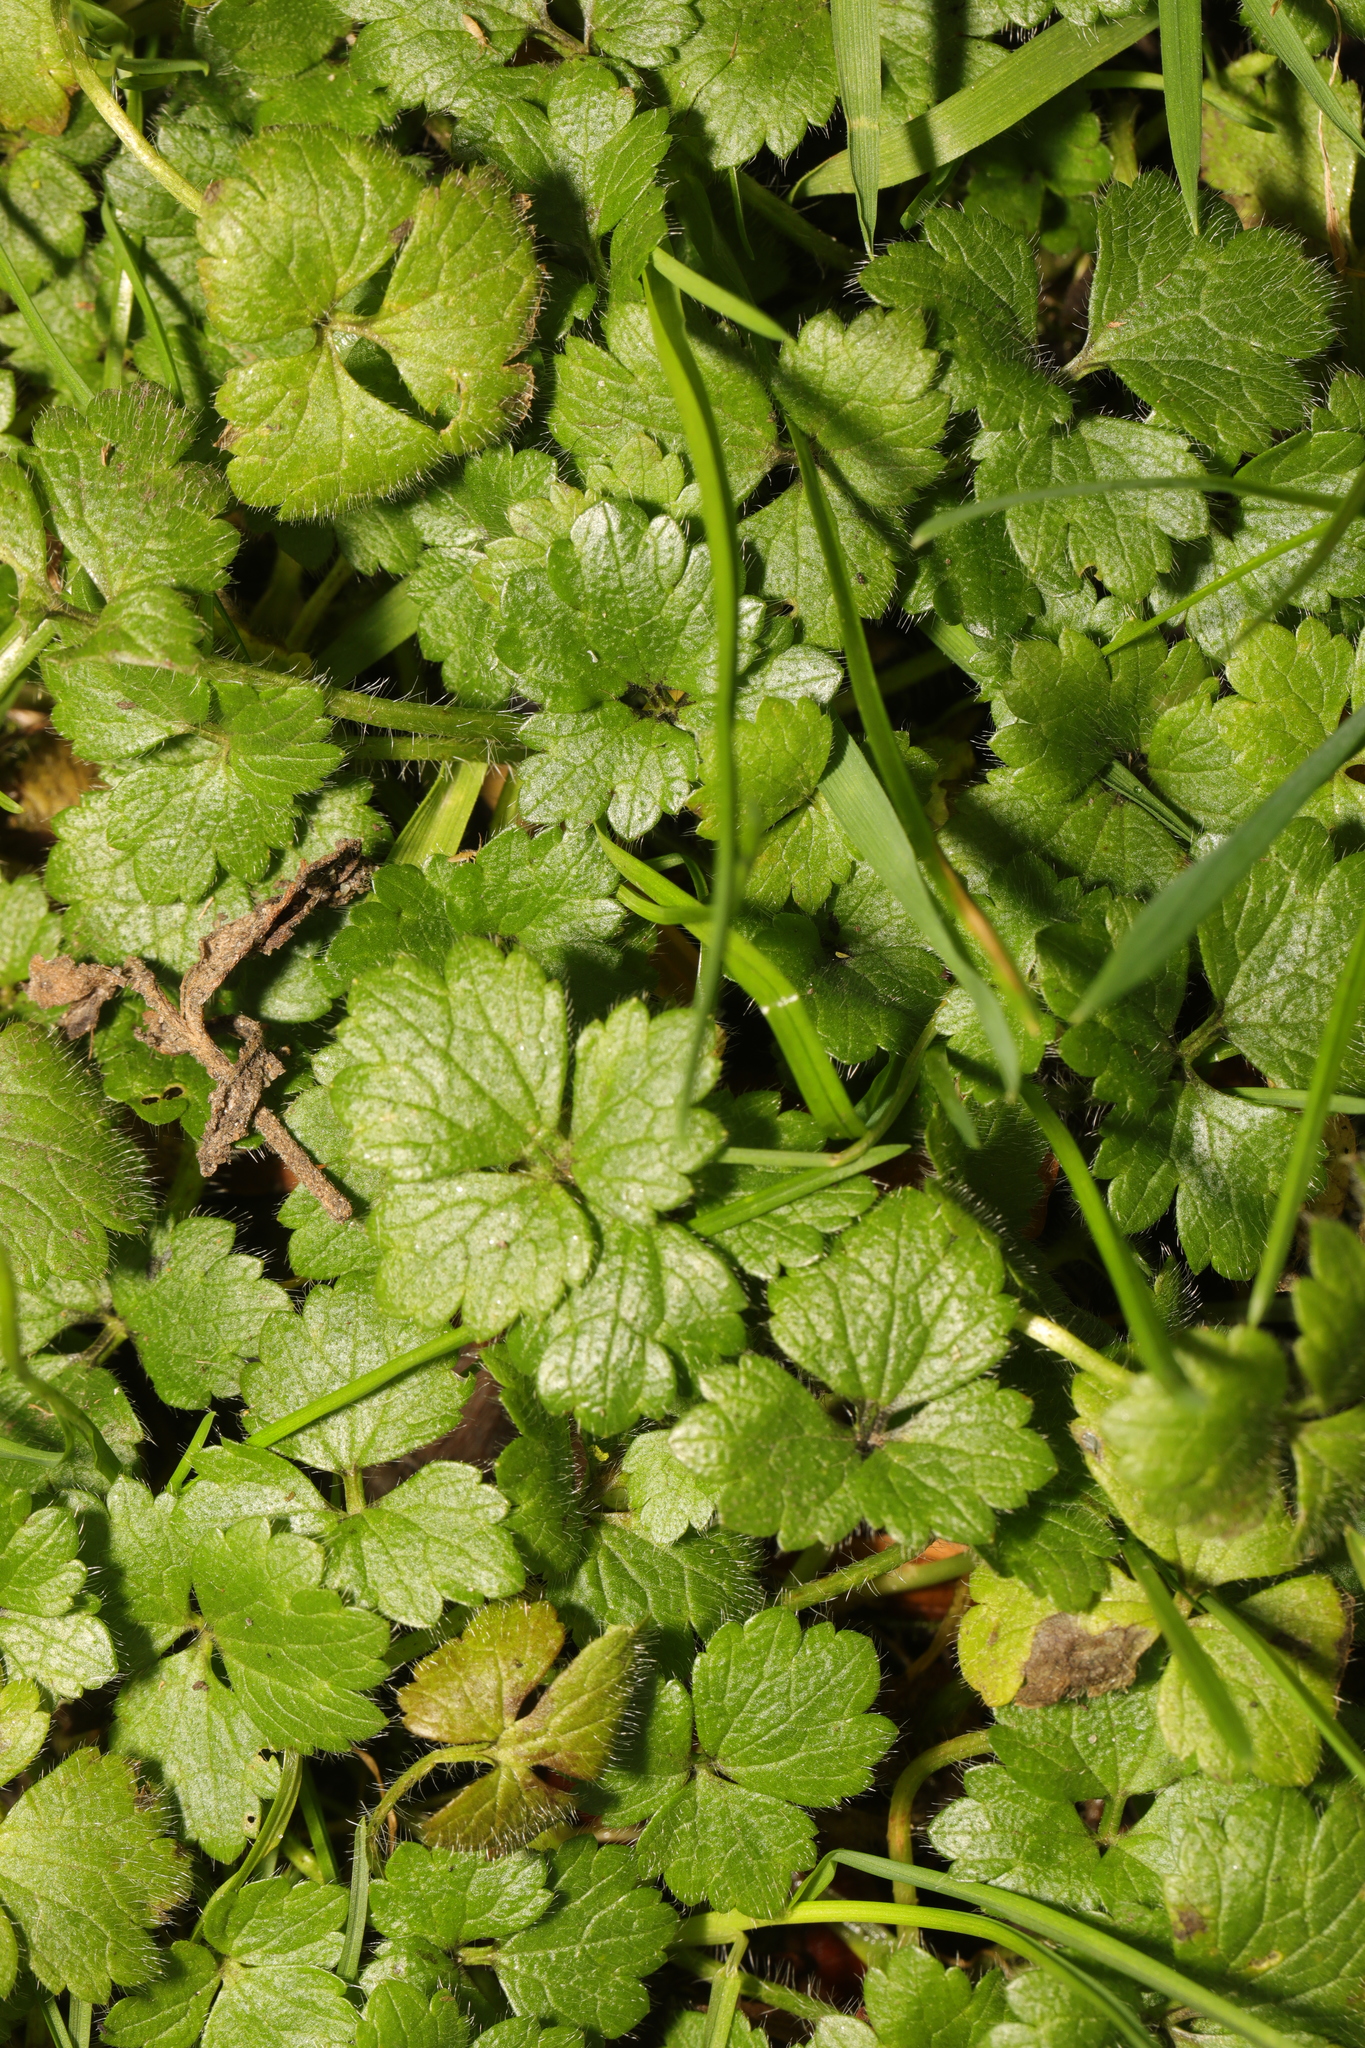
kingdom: Plantae
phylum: Tracheophyta
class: Magnoliopsida
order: Ranunculales
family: Ranunculaceae
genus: Ranunculus
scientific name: Ranunculus repens
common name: Creeping buttercup
